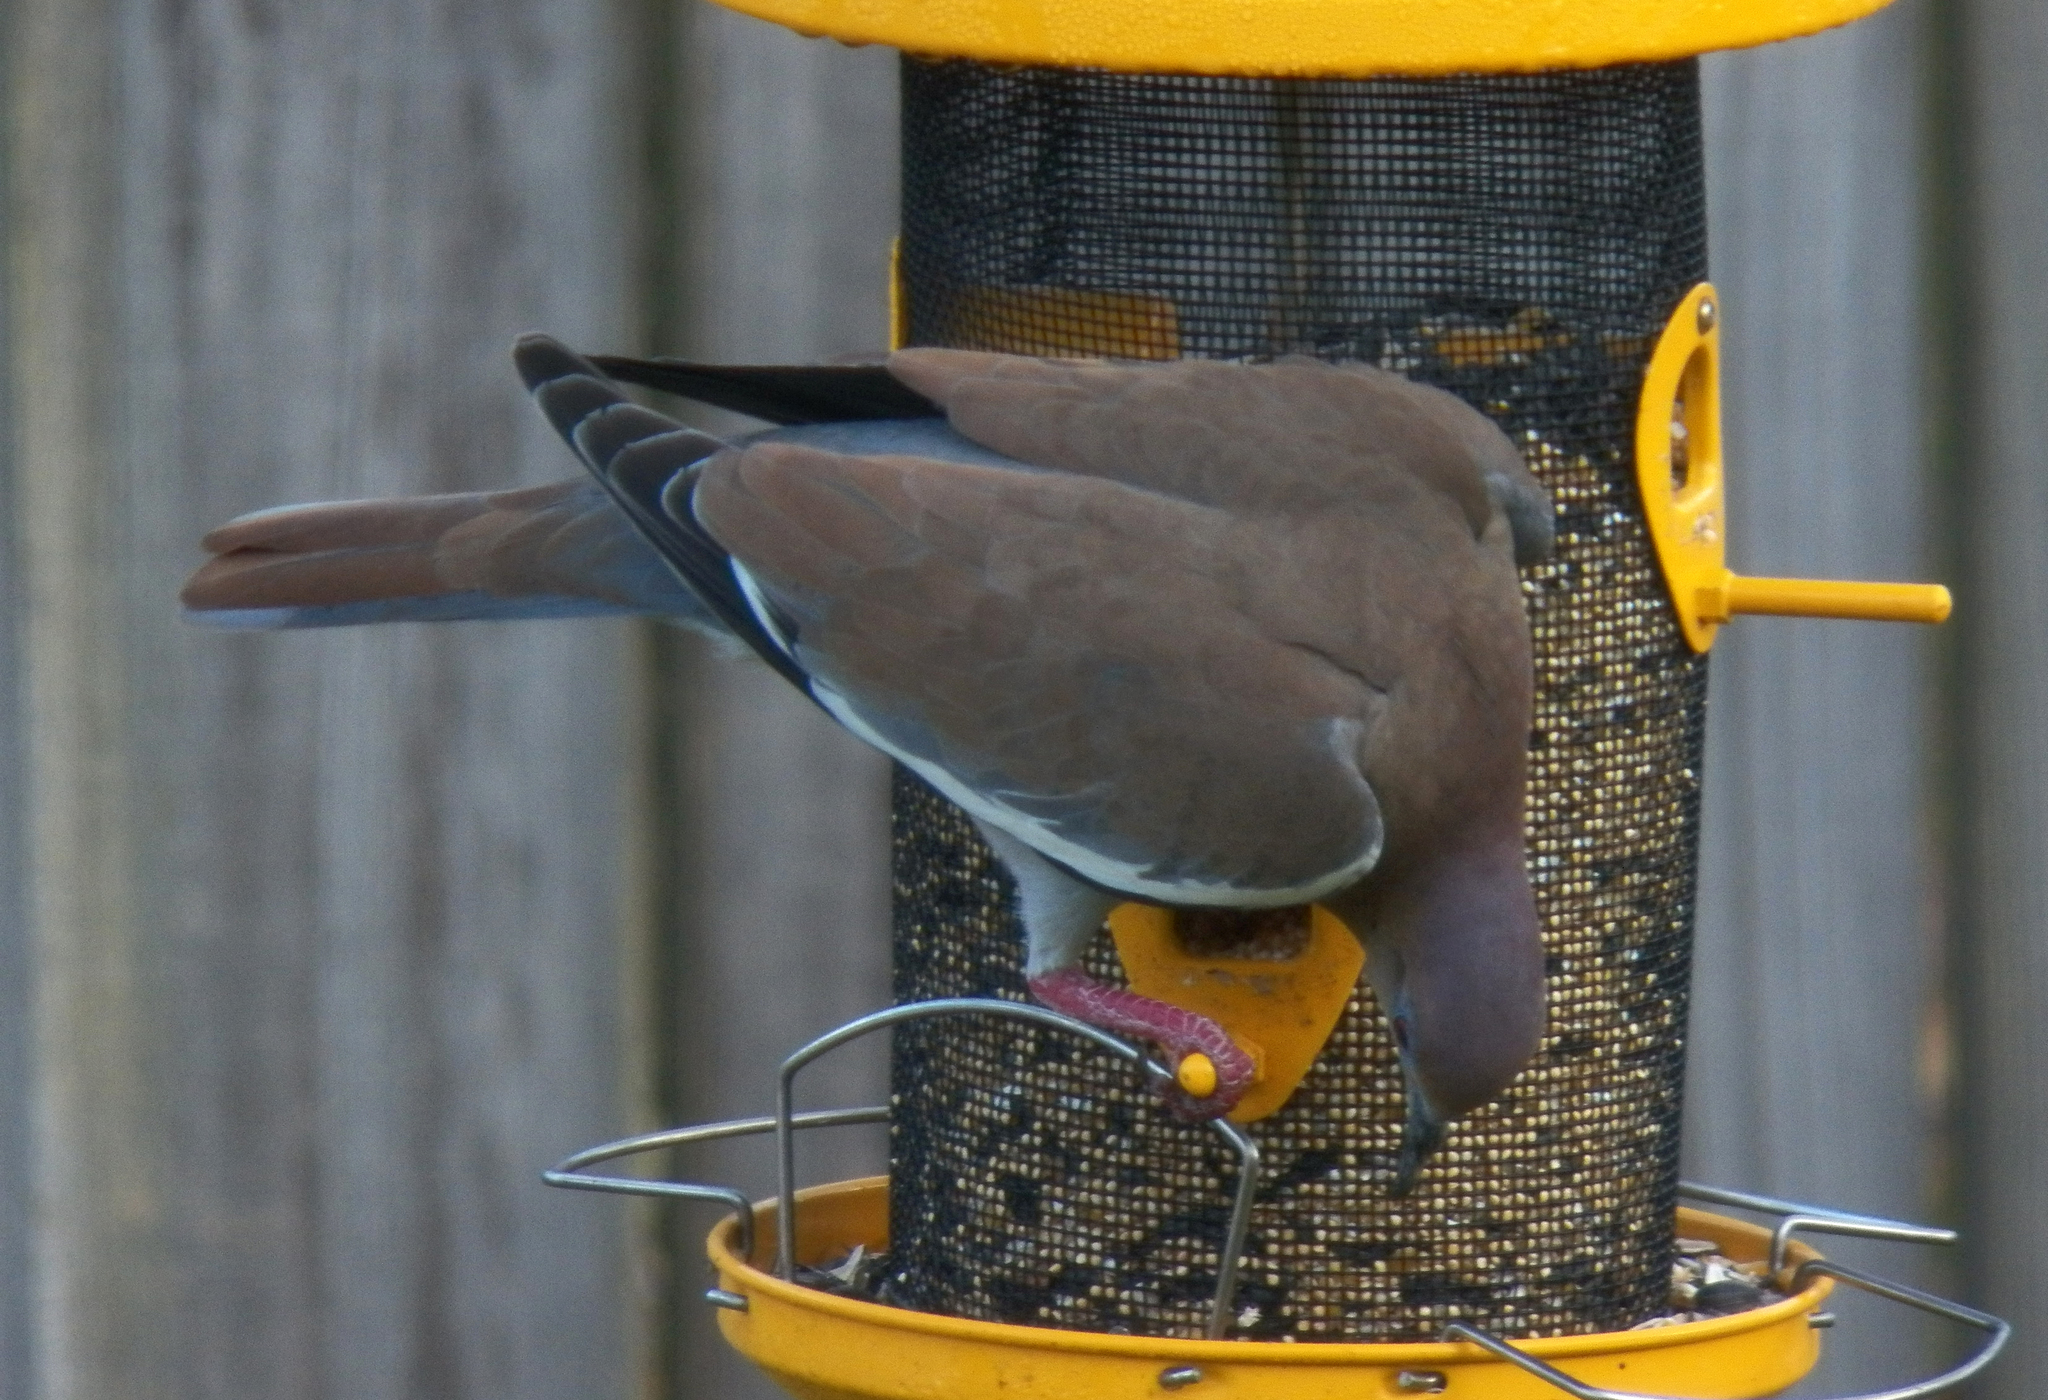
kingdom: Animalia
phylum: Chordata
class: Aves
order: Columbiformes
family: Columbidae
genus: Zenaida
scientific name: Zenaida asiatica
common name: White-winged dove
